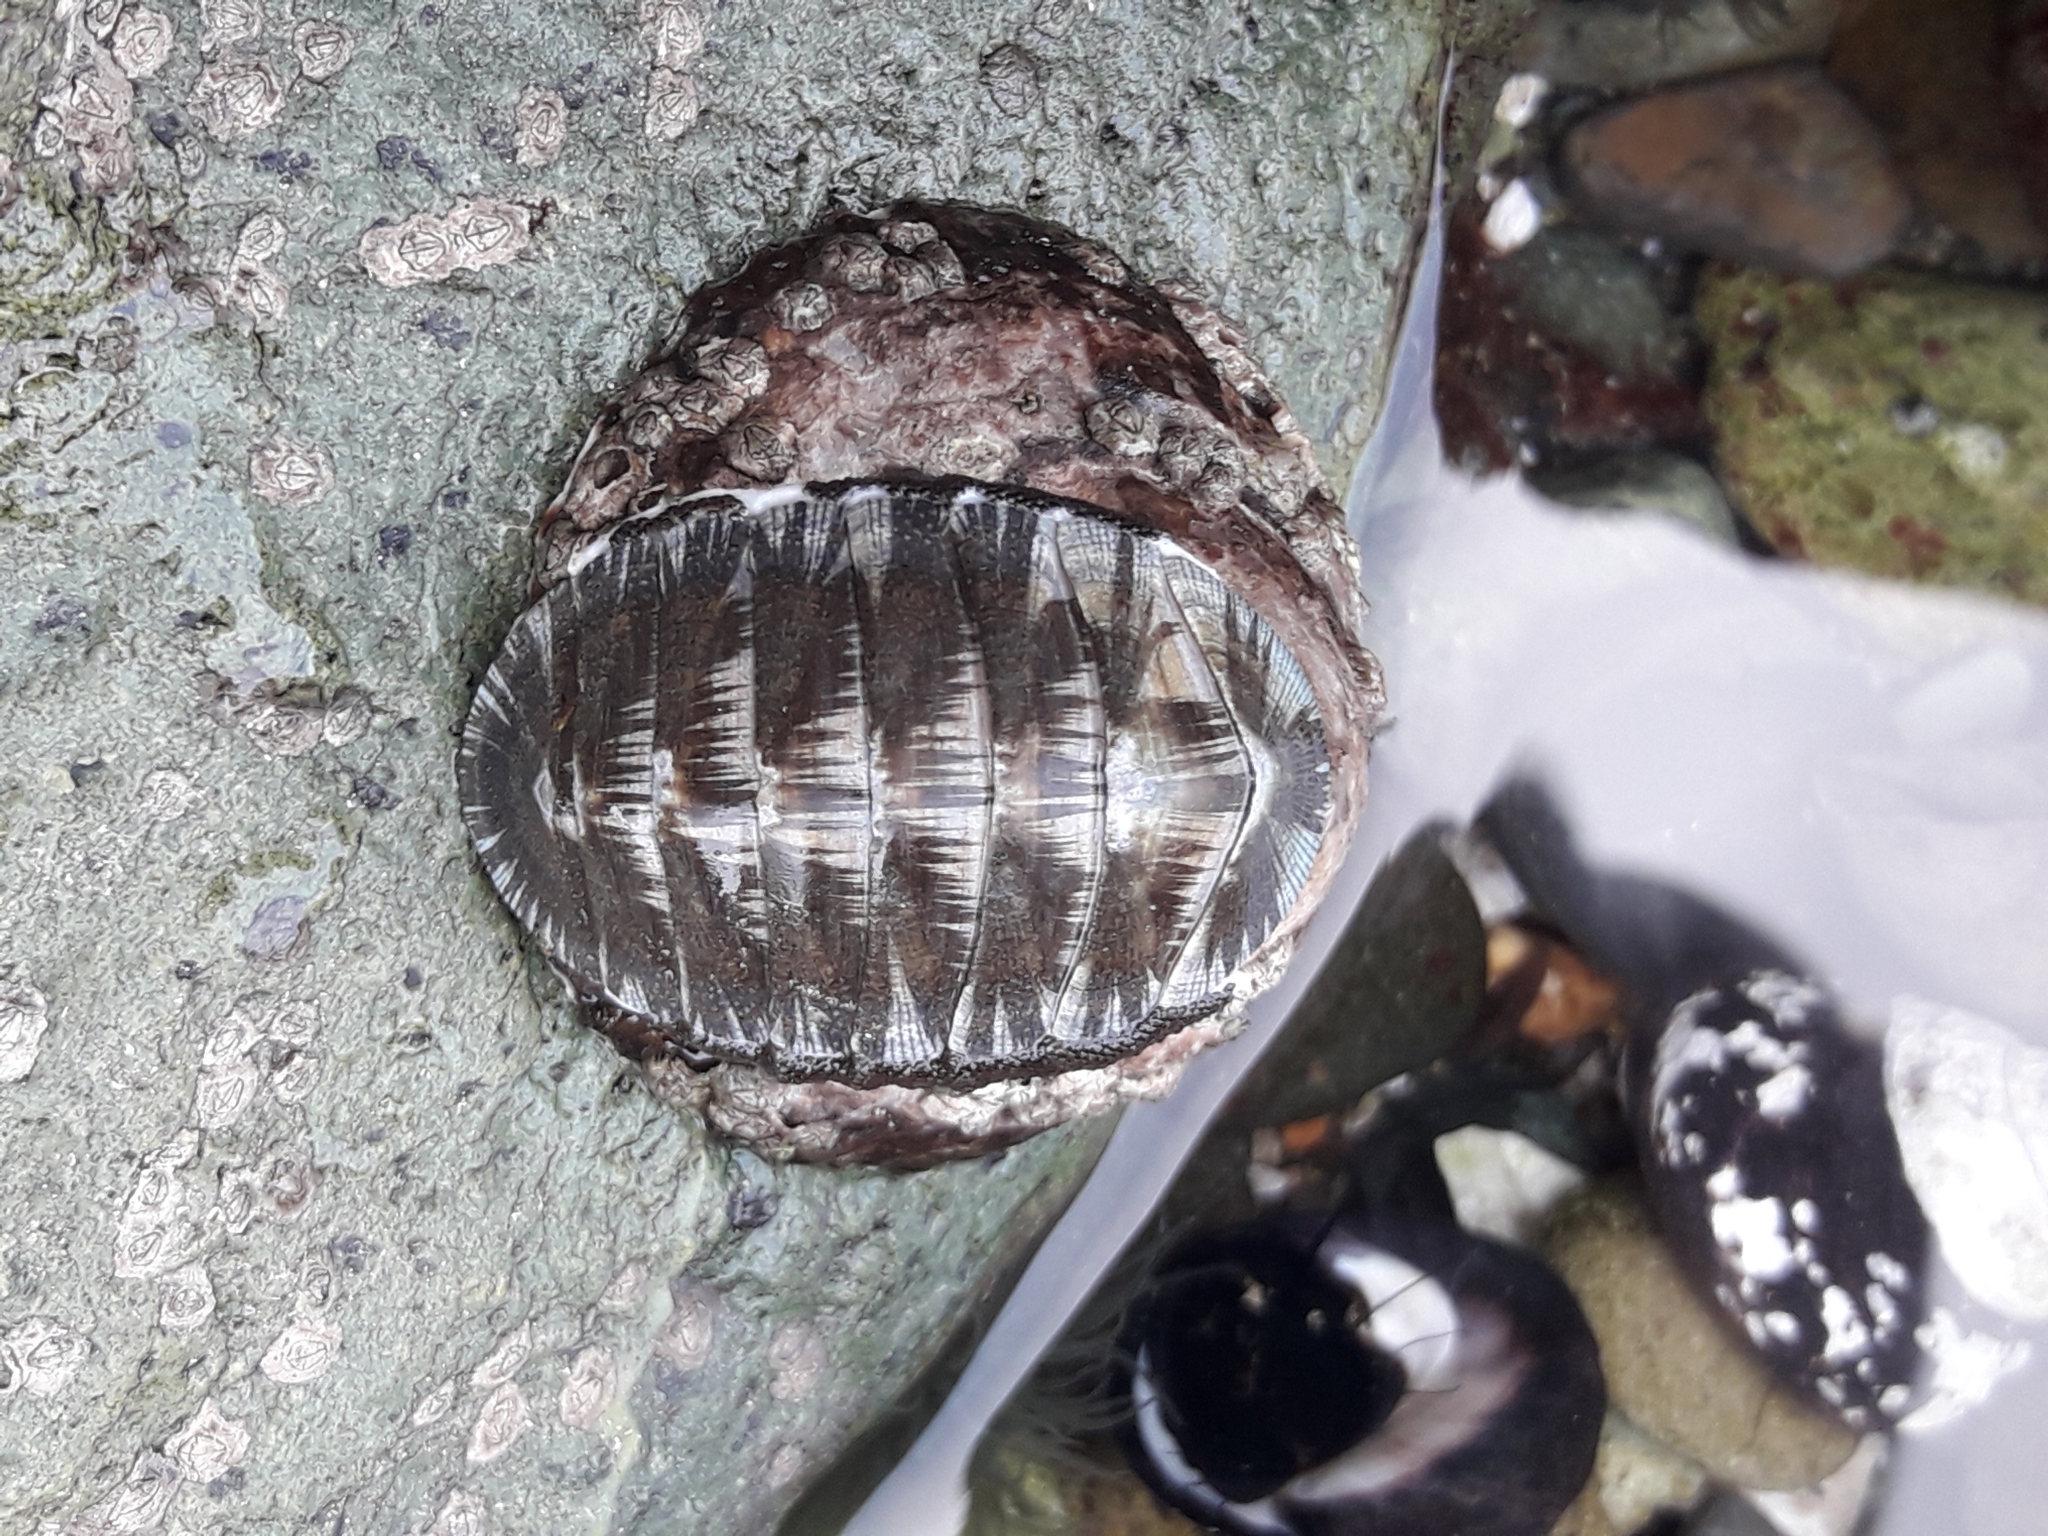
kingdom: Animalia
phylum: Mollusca
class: Polyplacophora
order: Chitonida
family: Chitonidae
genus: Chiton
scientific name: Chiton magnificus
